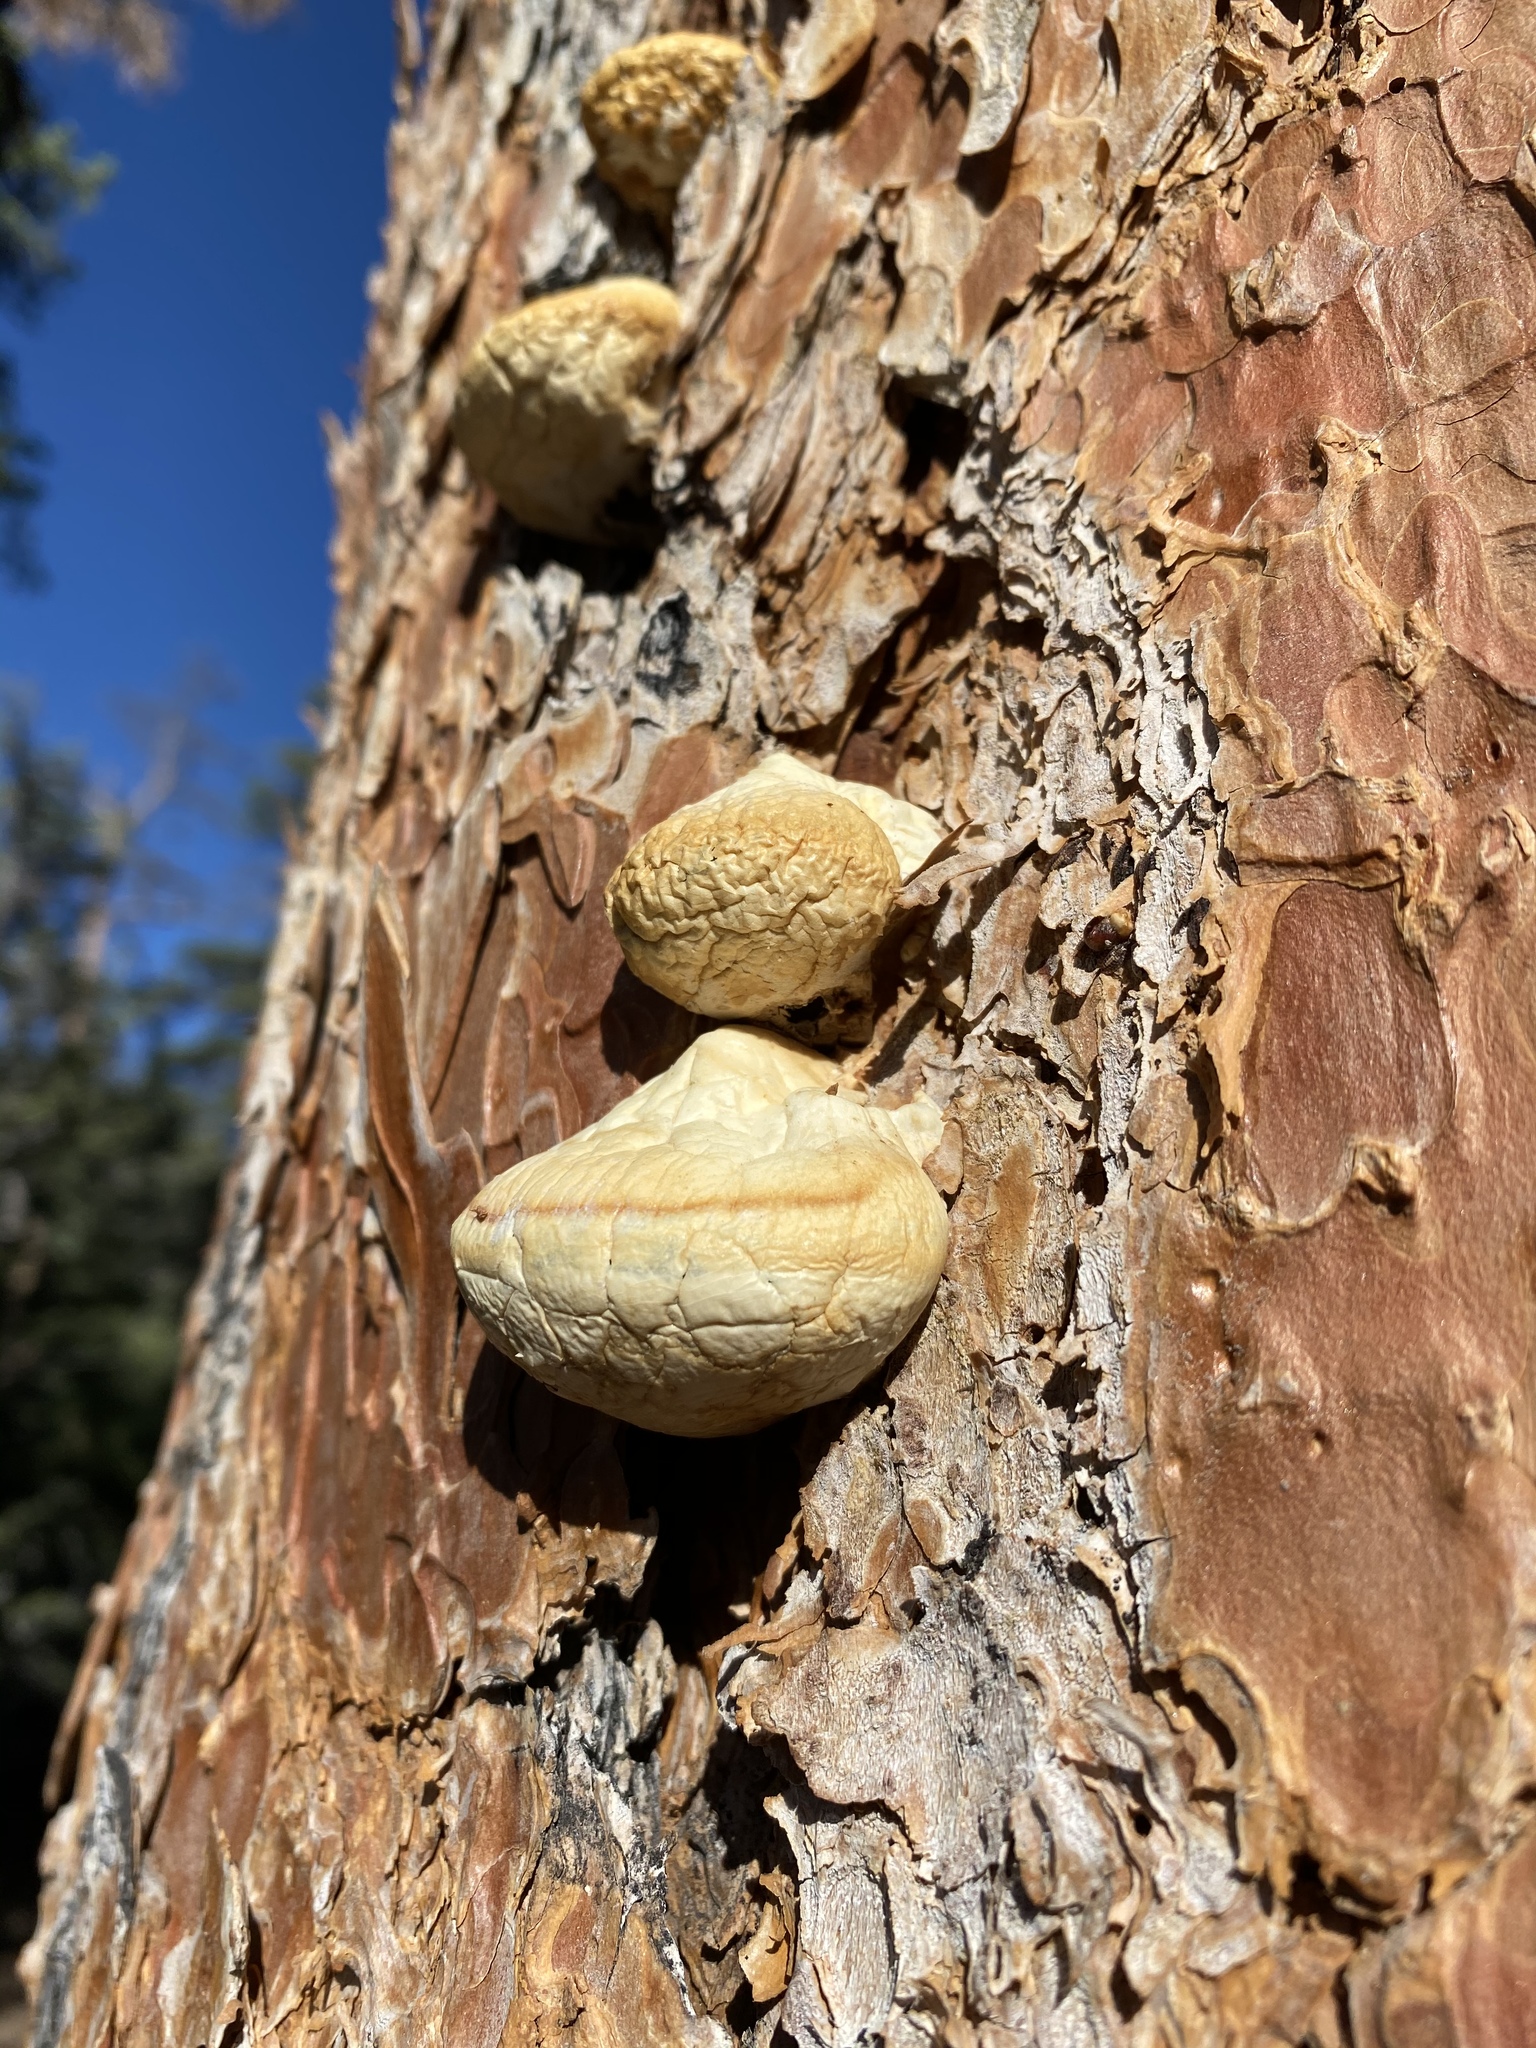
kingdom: Fungi
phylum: Basidiomycota
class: Agaricomycetes
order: Polyporales
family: Polyporaceae
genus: Cryptoporus
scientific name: Cryptoporus volvatus
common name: Veiled polypore
